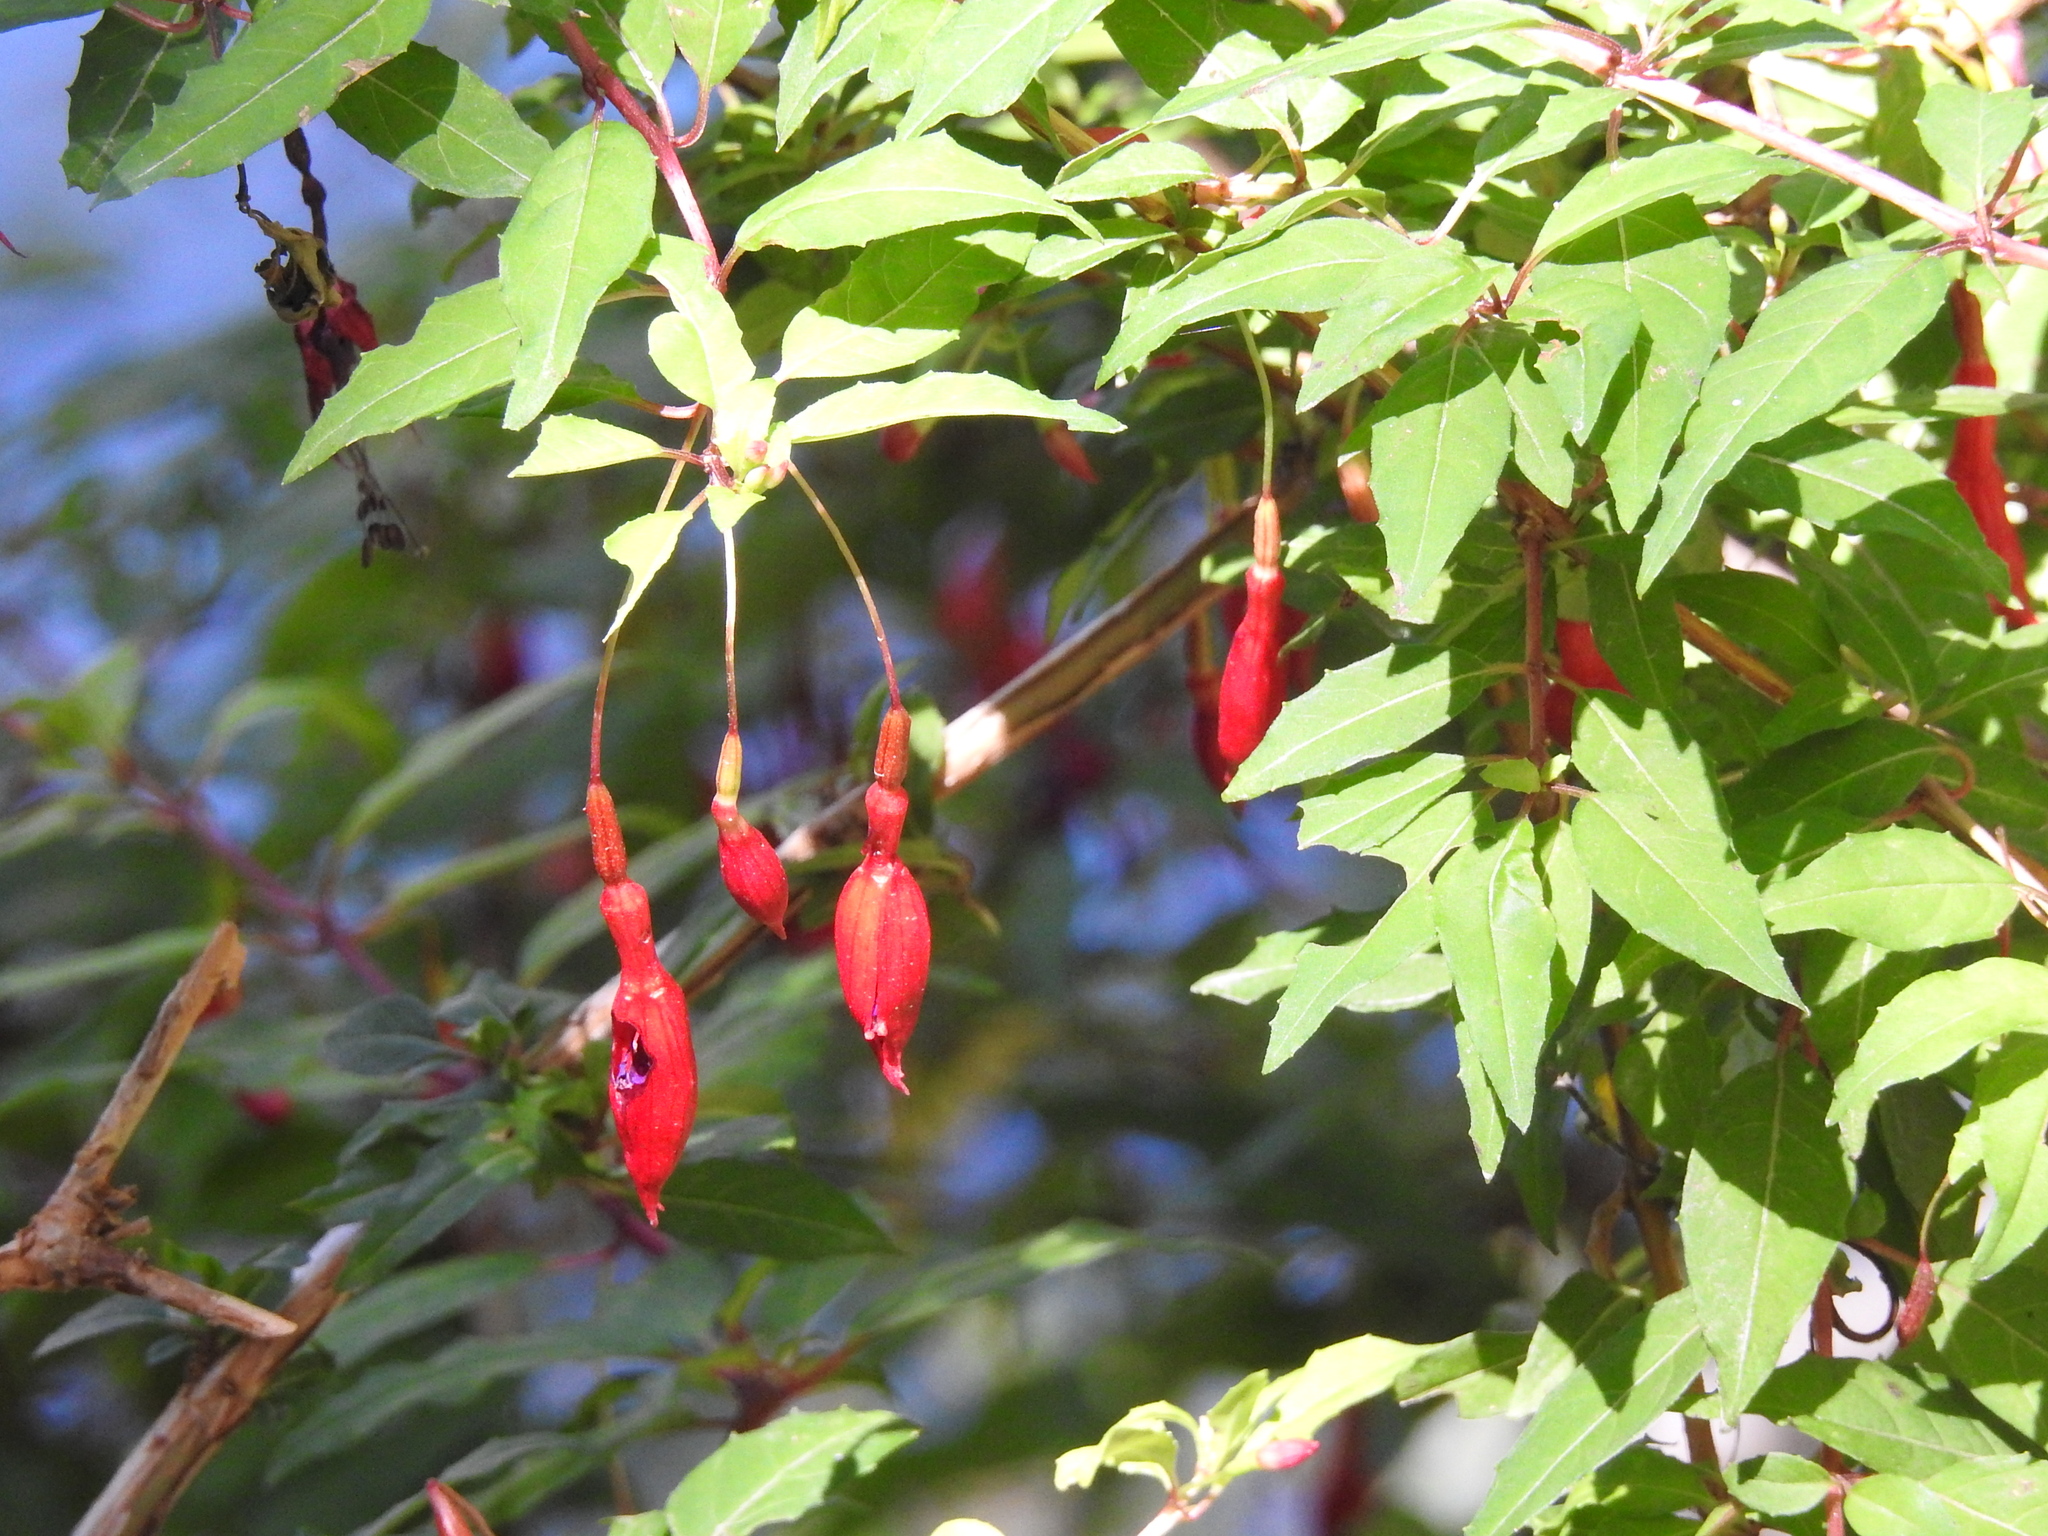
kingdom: Plantae
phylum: Tracheophyta
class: Magnoliopsida
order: Myrtales
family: Onagraceae
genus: Fuchsia
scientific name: Fuchsia magellanica
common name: Hardy fuchsia
